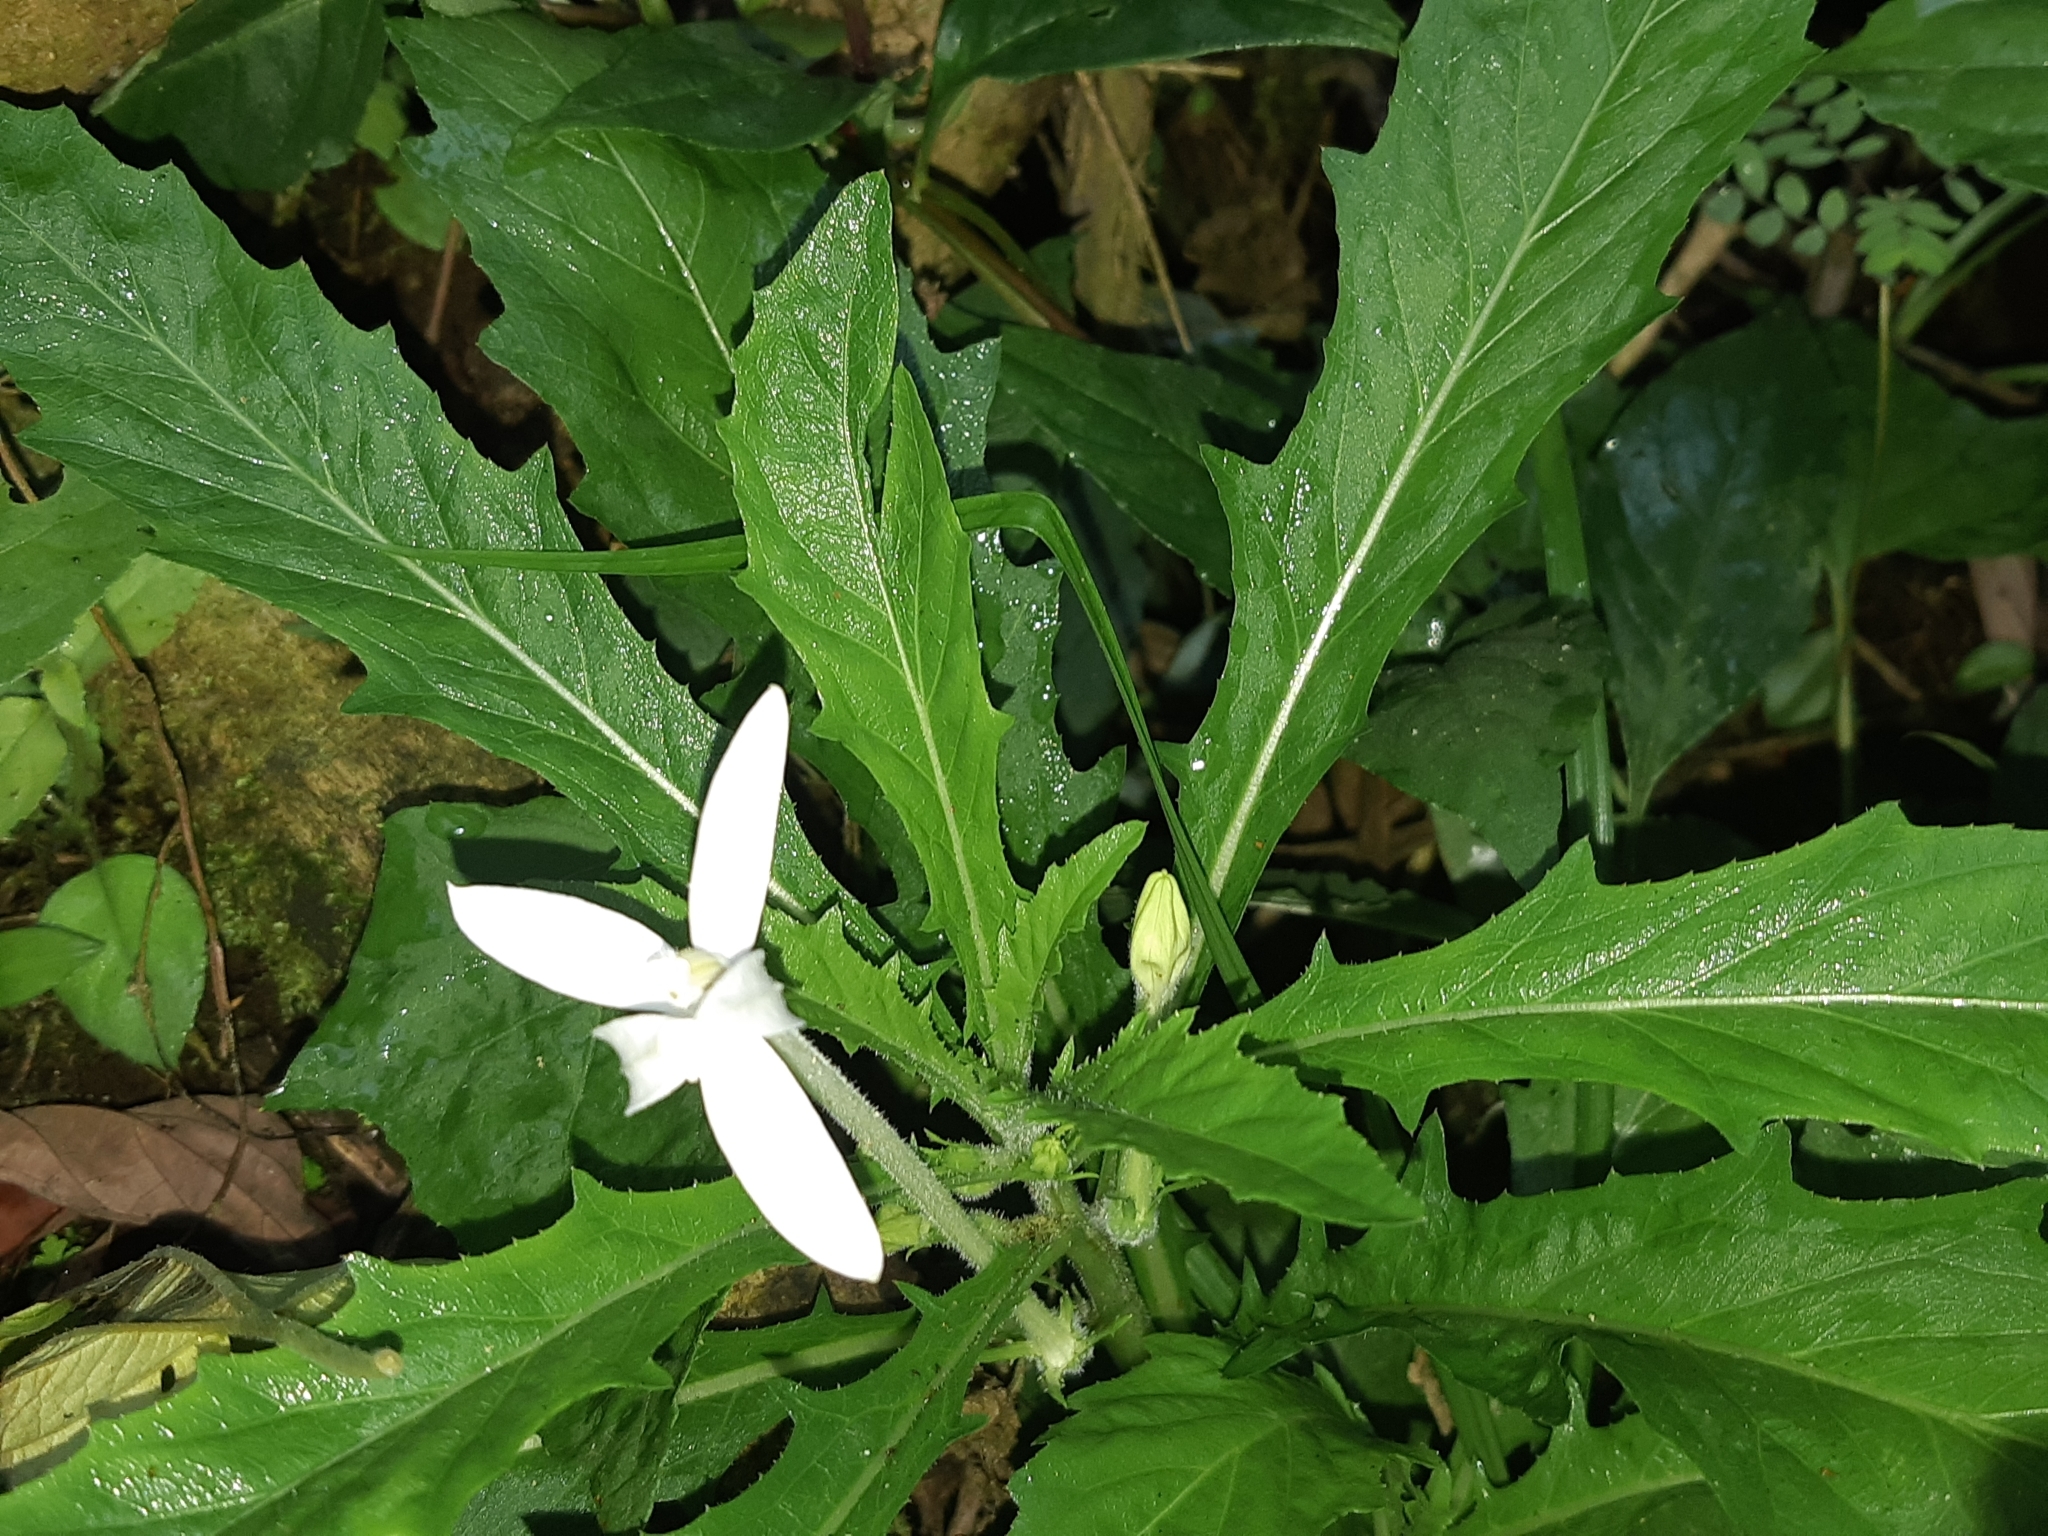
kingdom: Plantae
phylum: Tracheophyta
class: Magnoliopsida
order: Asterales
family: Campanulaceae
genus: Hippobroma
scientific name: Hippobroma longiflora
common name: Madamfate
